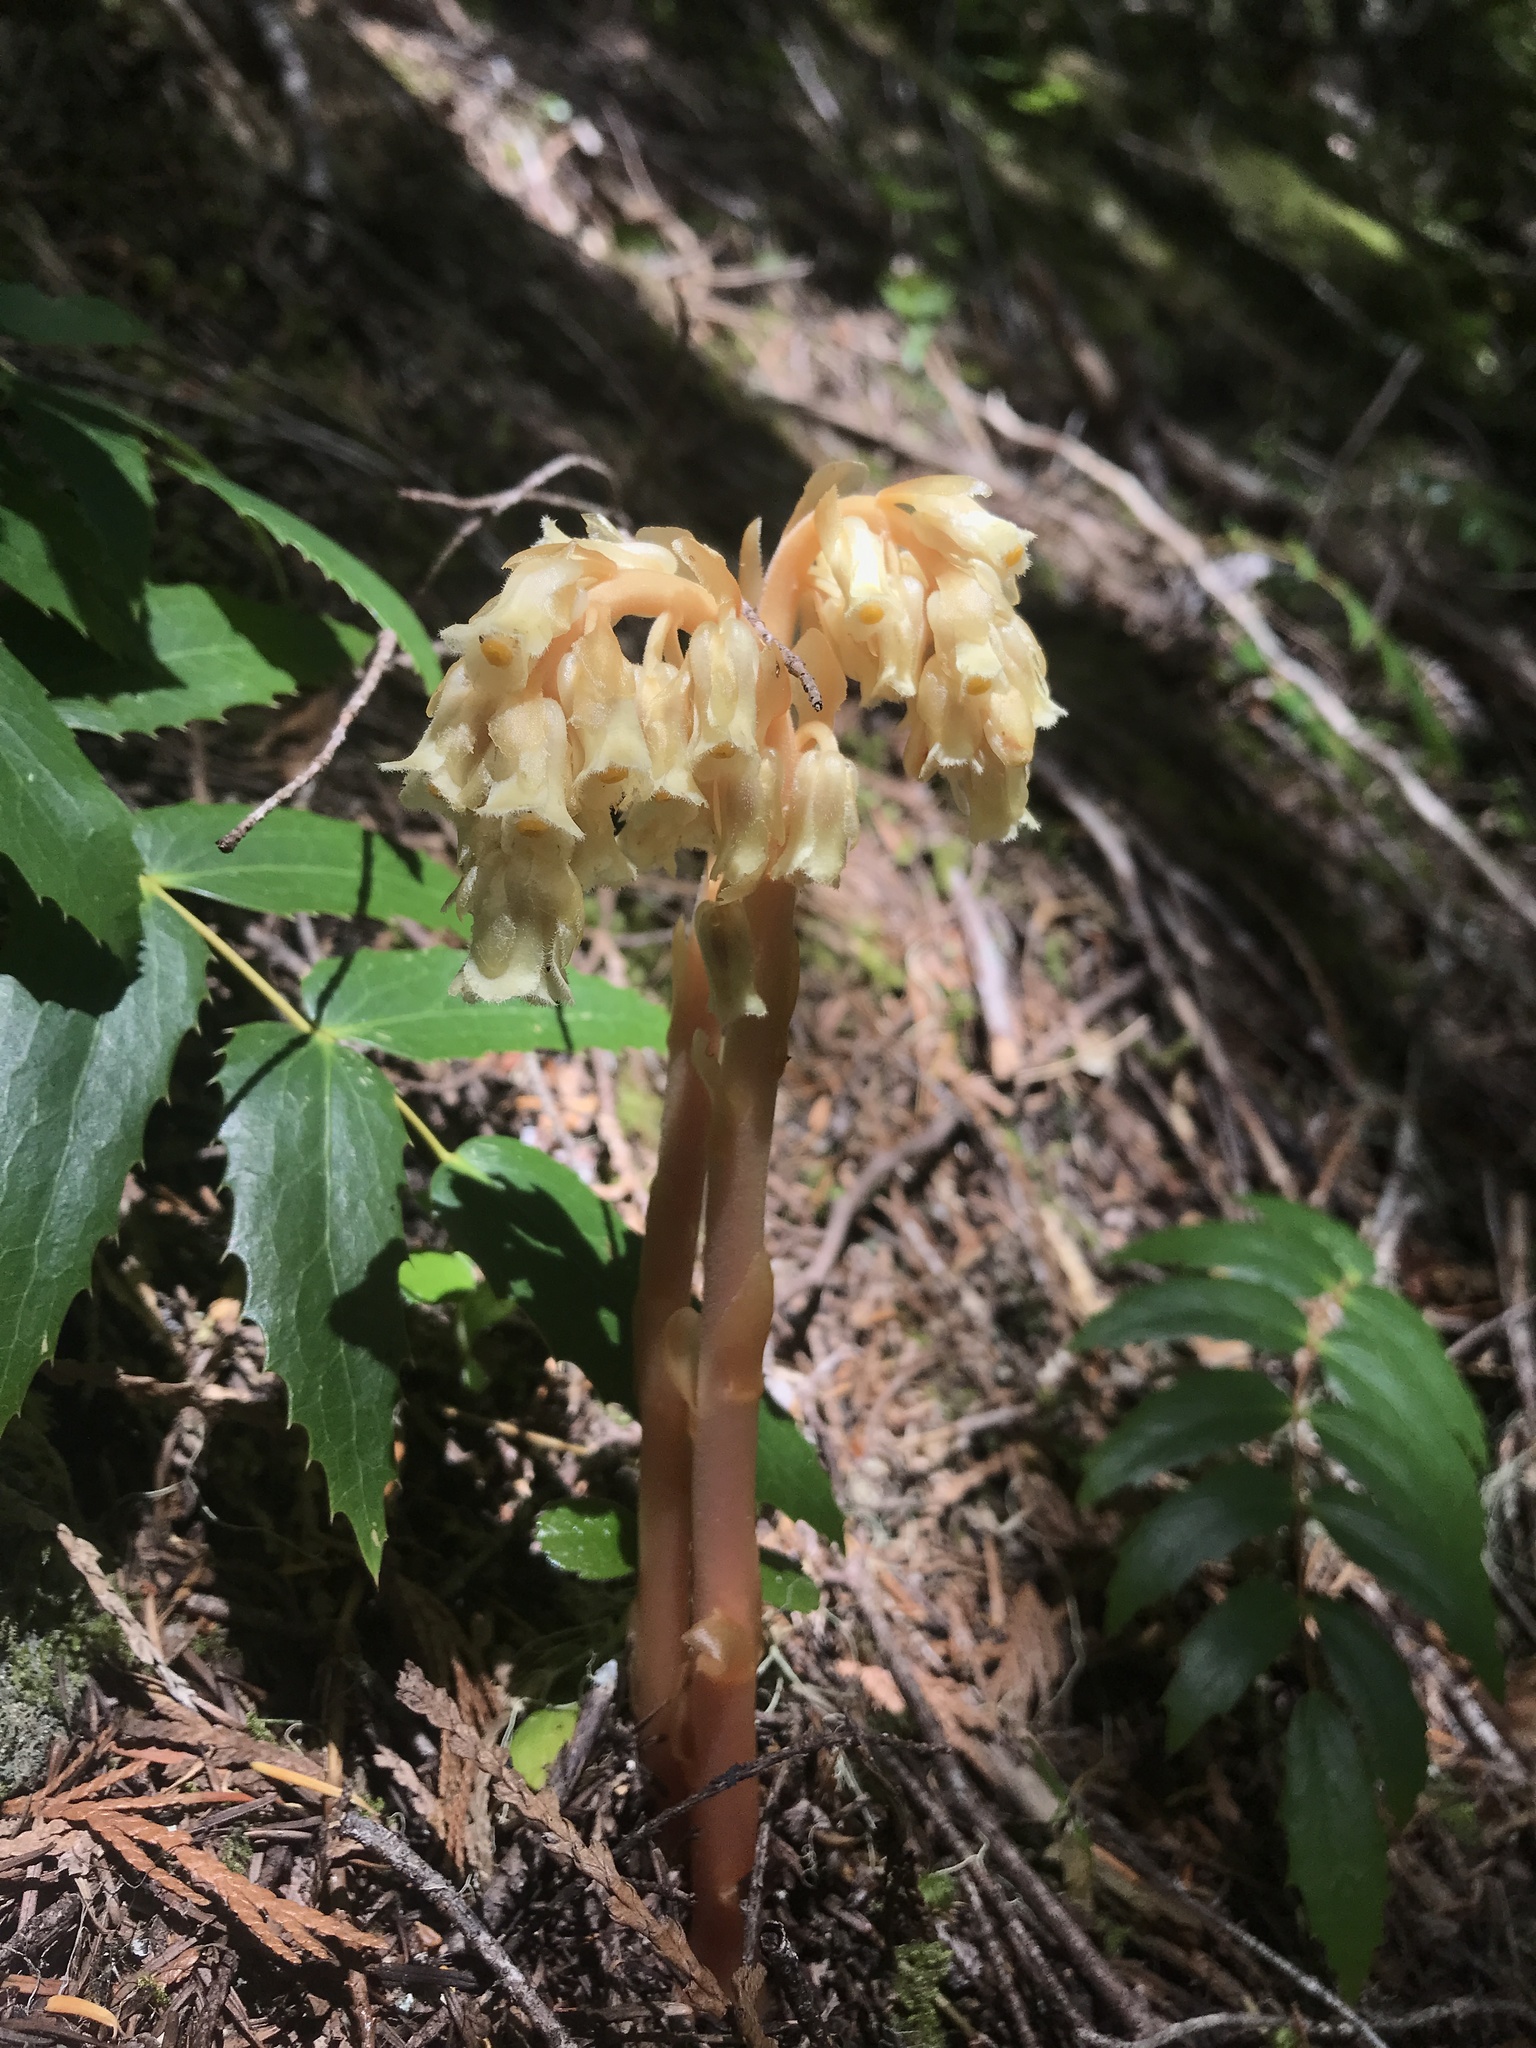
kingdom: Plantae
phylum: Tracheophyta
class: Magnoliopsida
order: Ericales
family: Ericaceae
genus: Hypopitys
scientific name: Hypopitys monotropa
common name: Yellow bird's-nest
